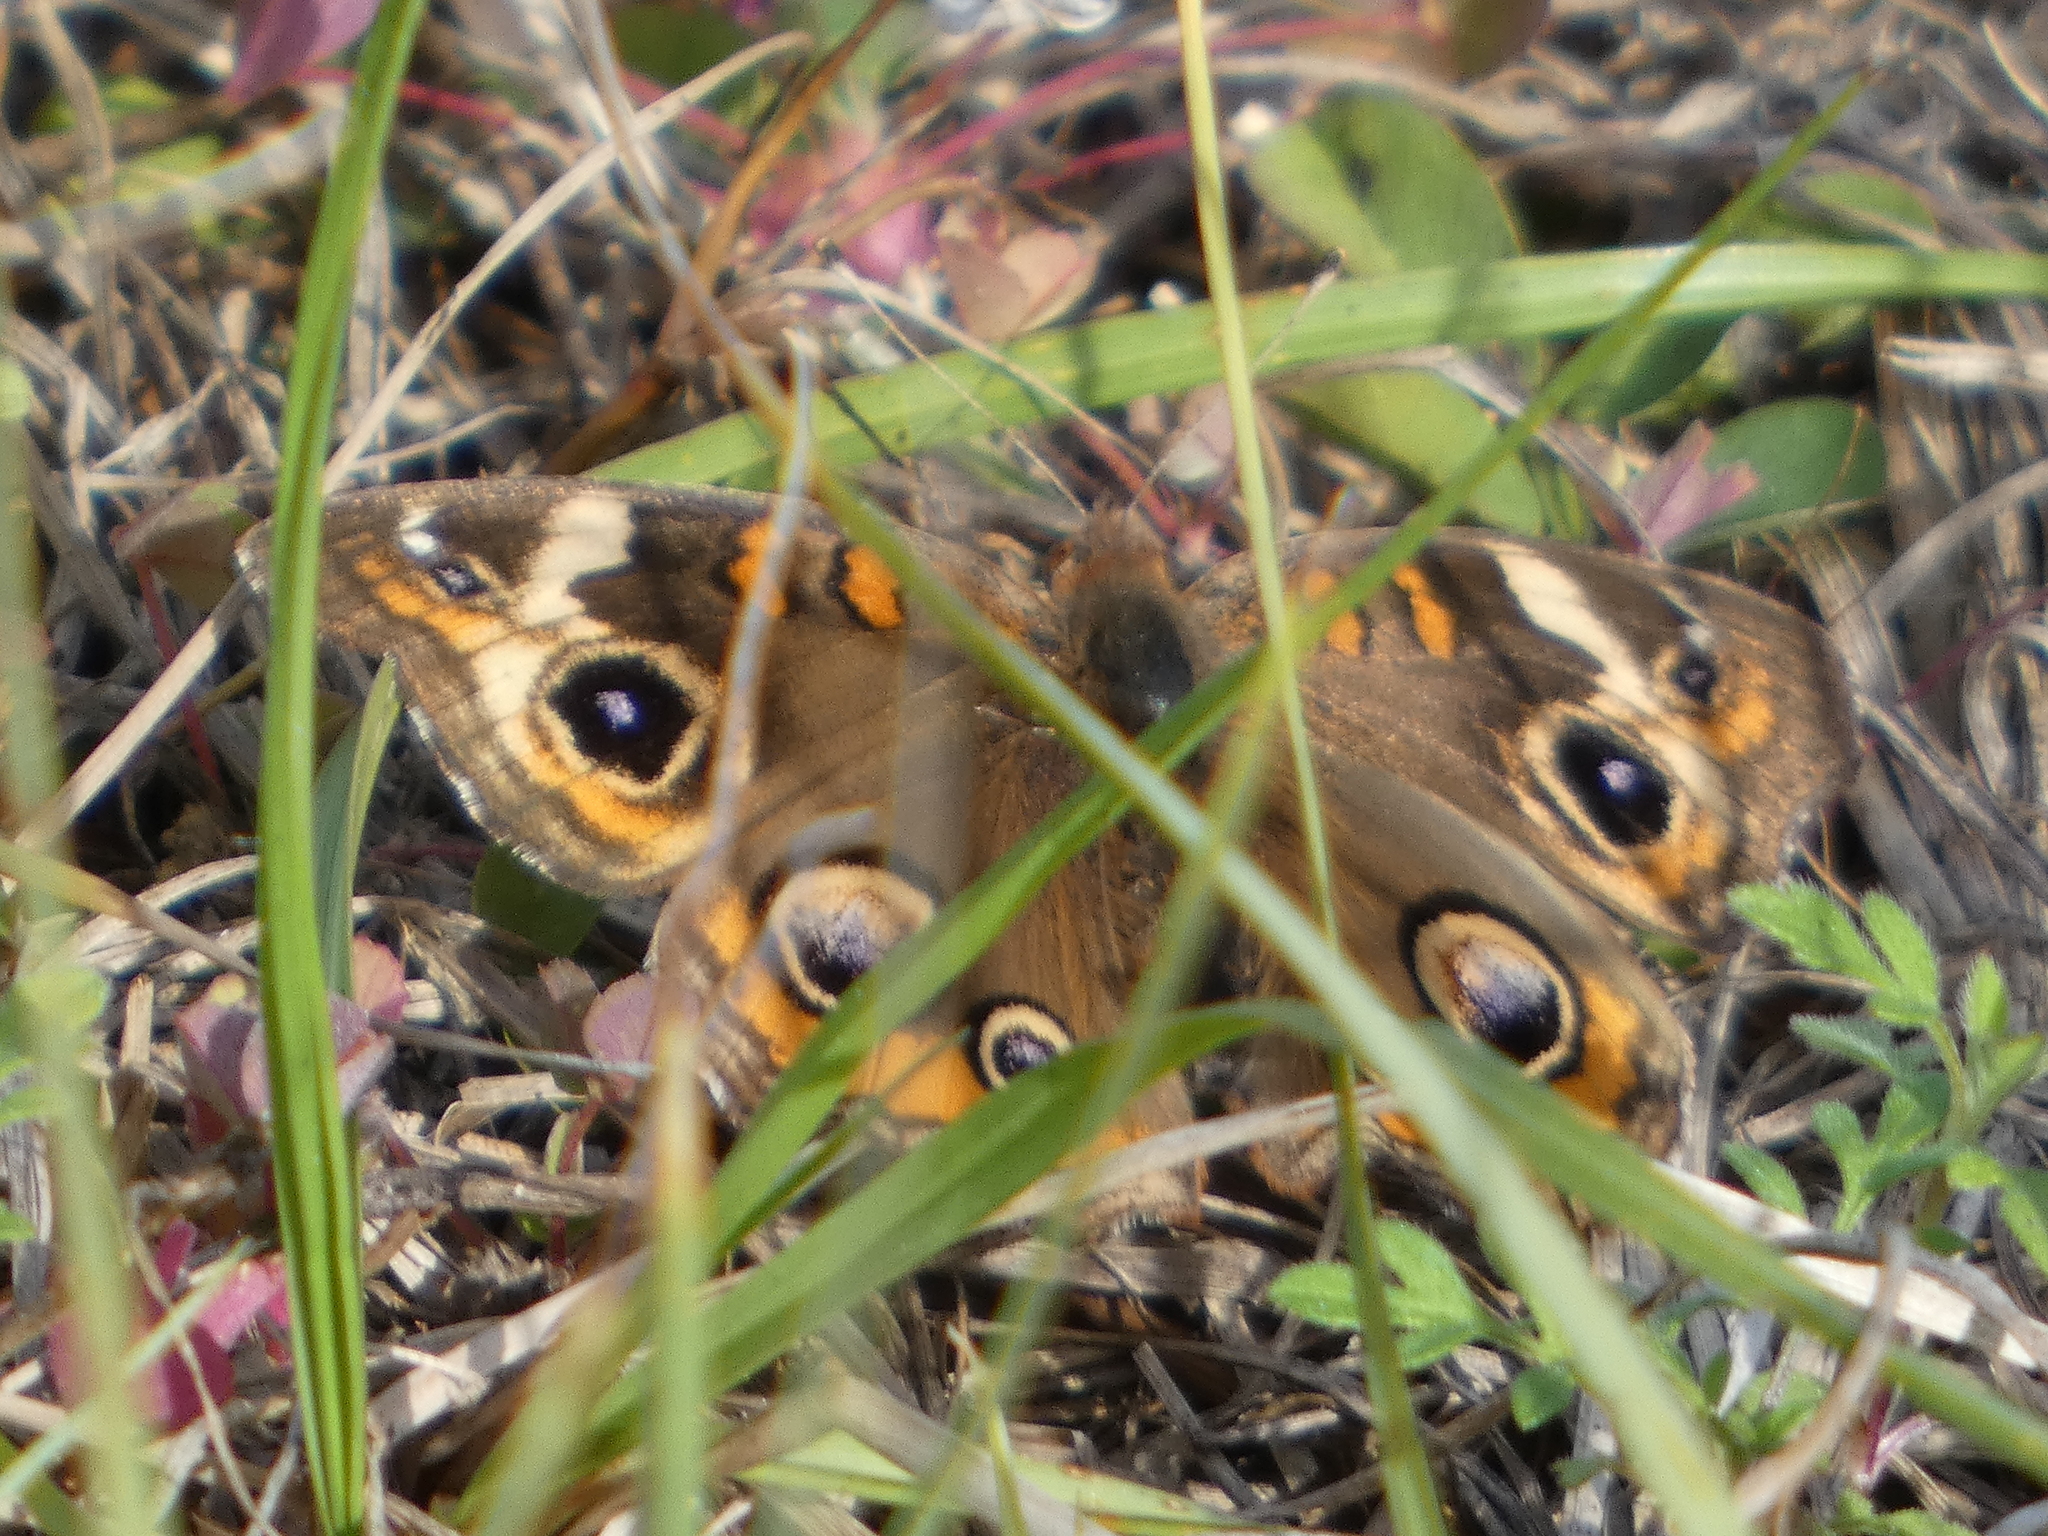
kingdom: Animalia
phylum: Arthropoda
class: Insecta
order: Lepidoptera
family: Nymphalidae
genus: Junonia
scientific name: Junonia coenia
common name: Common buckeye
